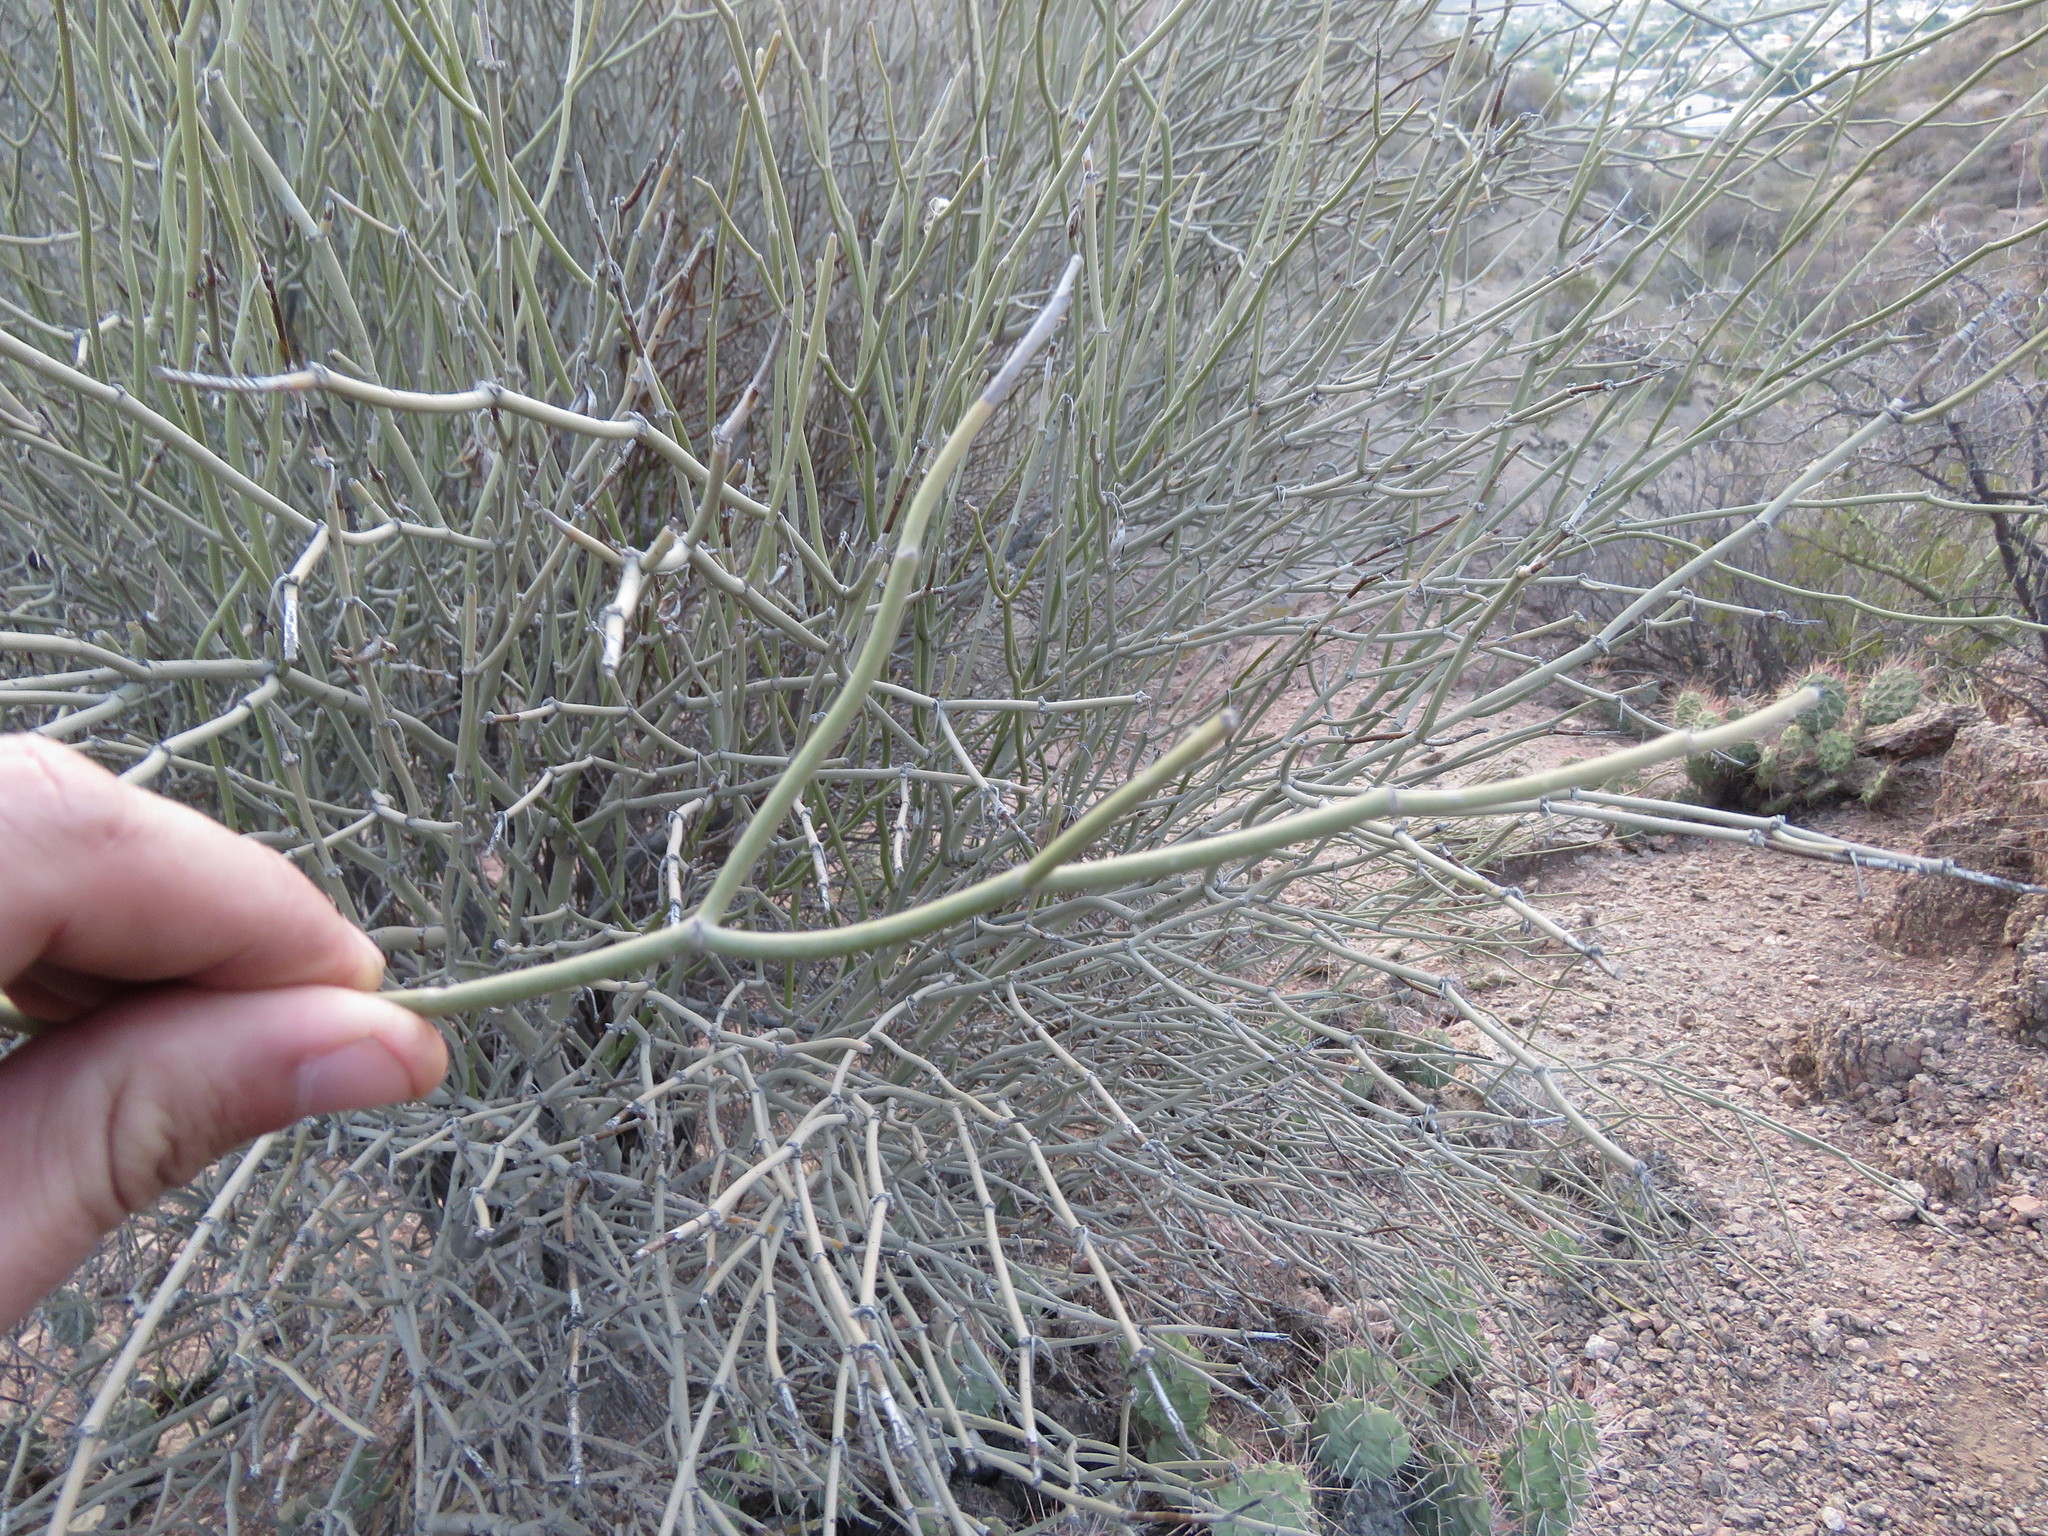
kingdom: Plantae
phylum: Tracheophyta
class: Magnoliopsida
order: Zygophyllales
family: Zygophyllaceae
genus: Bulnesia
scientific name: Bulnesia retama
